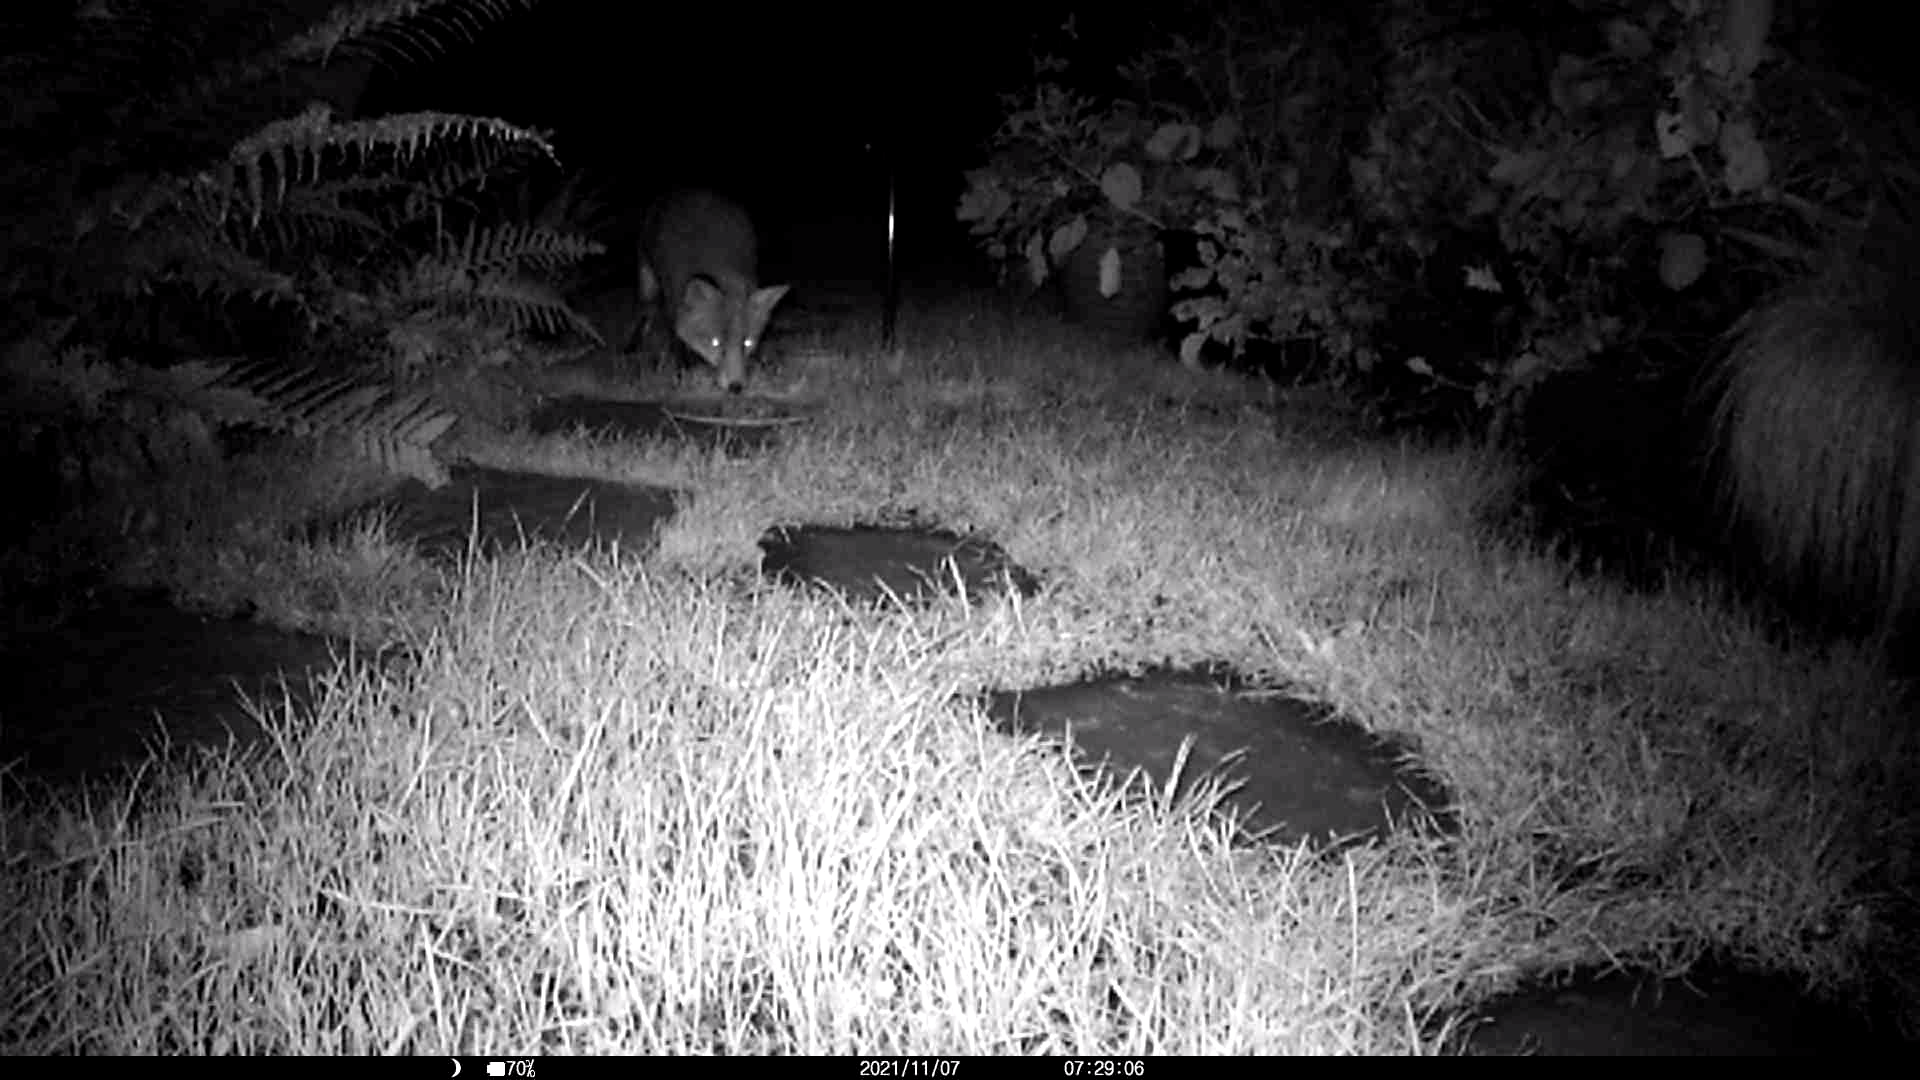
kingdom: Animalia
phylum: Chordata
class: Mammalia
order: Carnivora
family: Canidae
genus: Vulpes
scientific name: Vulpes vulpes
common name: Red fox
